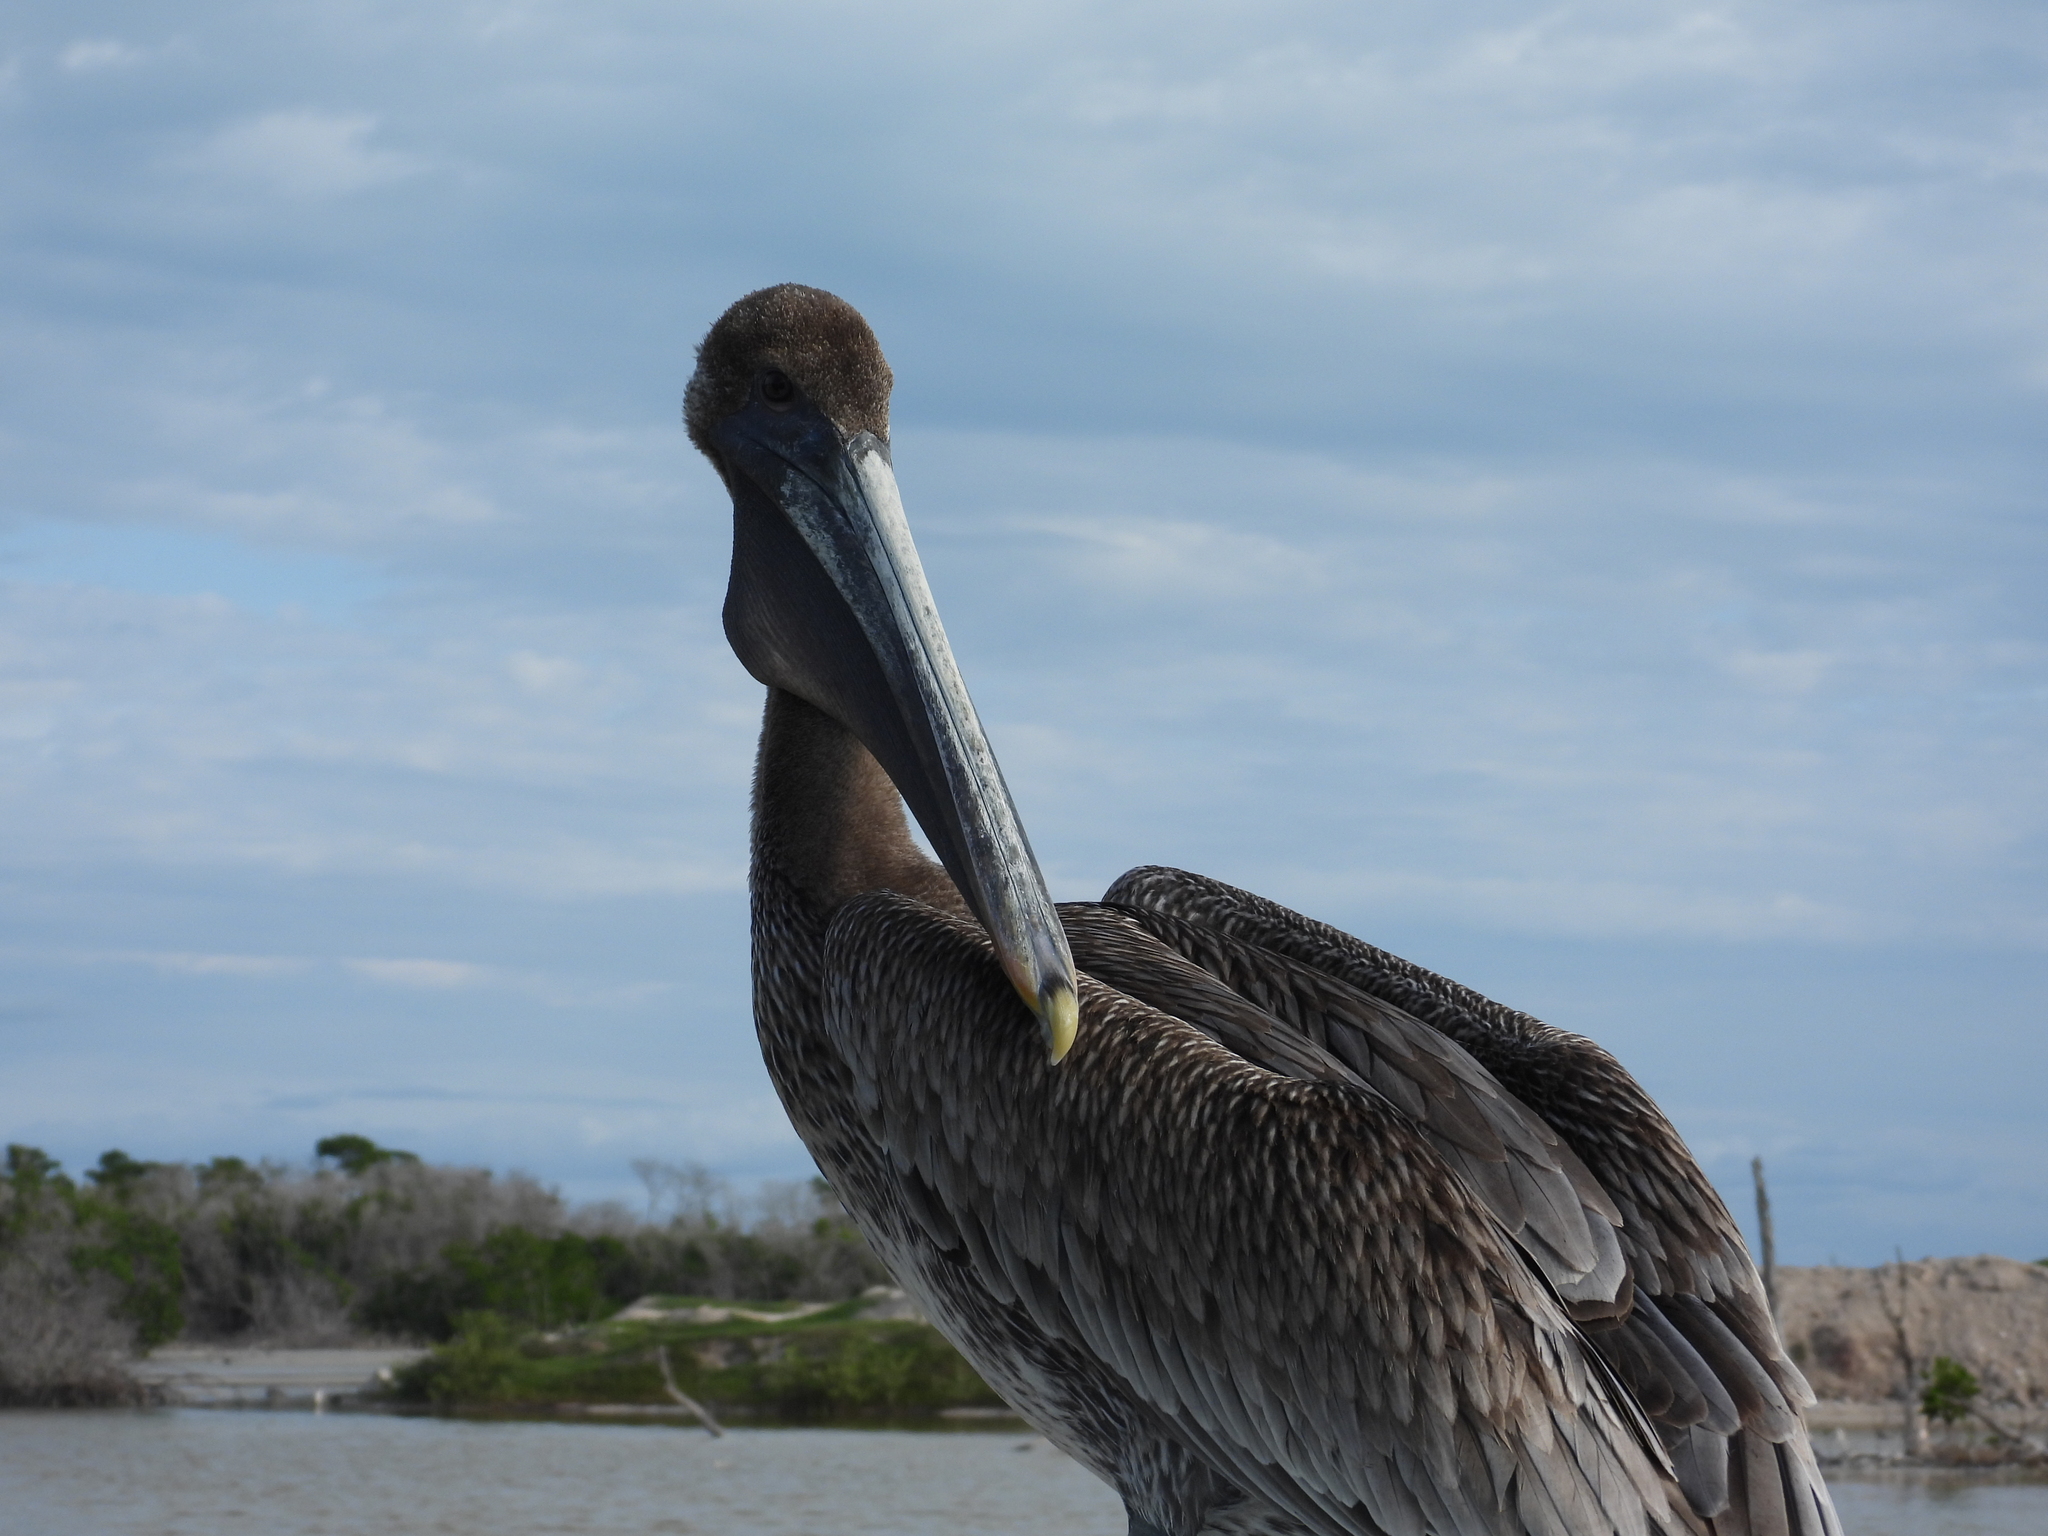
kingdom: Animalia
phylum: Chordata
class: Aves
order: Pelecaniformes
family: Pelecanidae
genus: Pelecanus
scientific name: Pelecanus occidentalis
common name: Brown pelican
